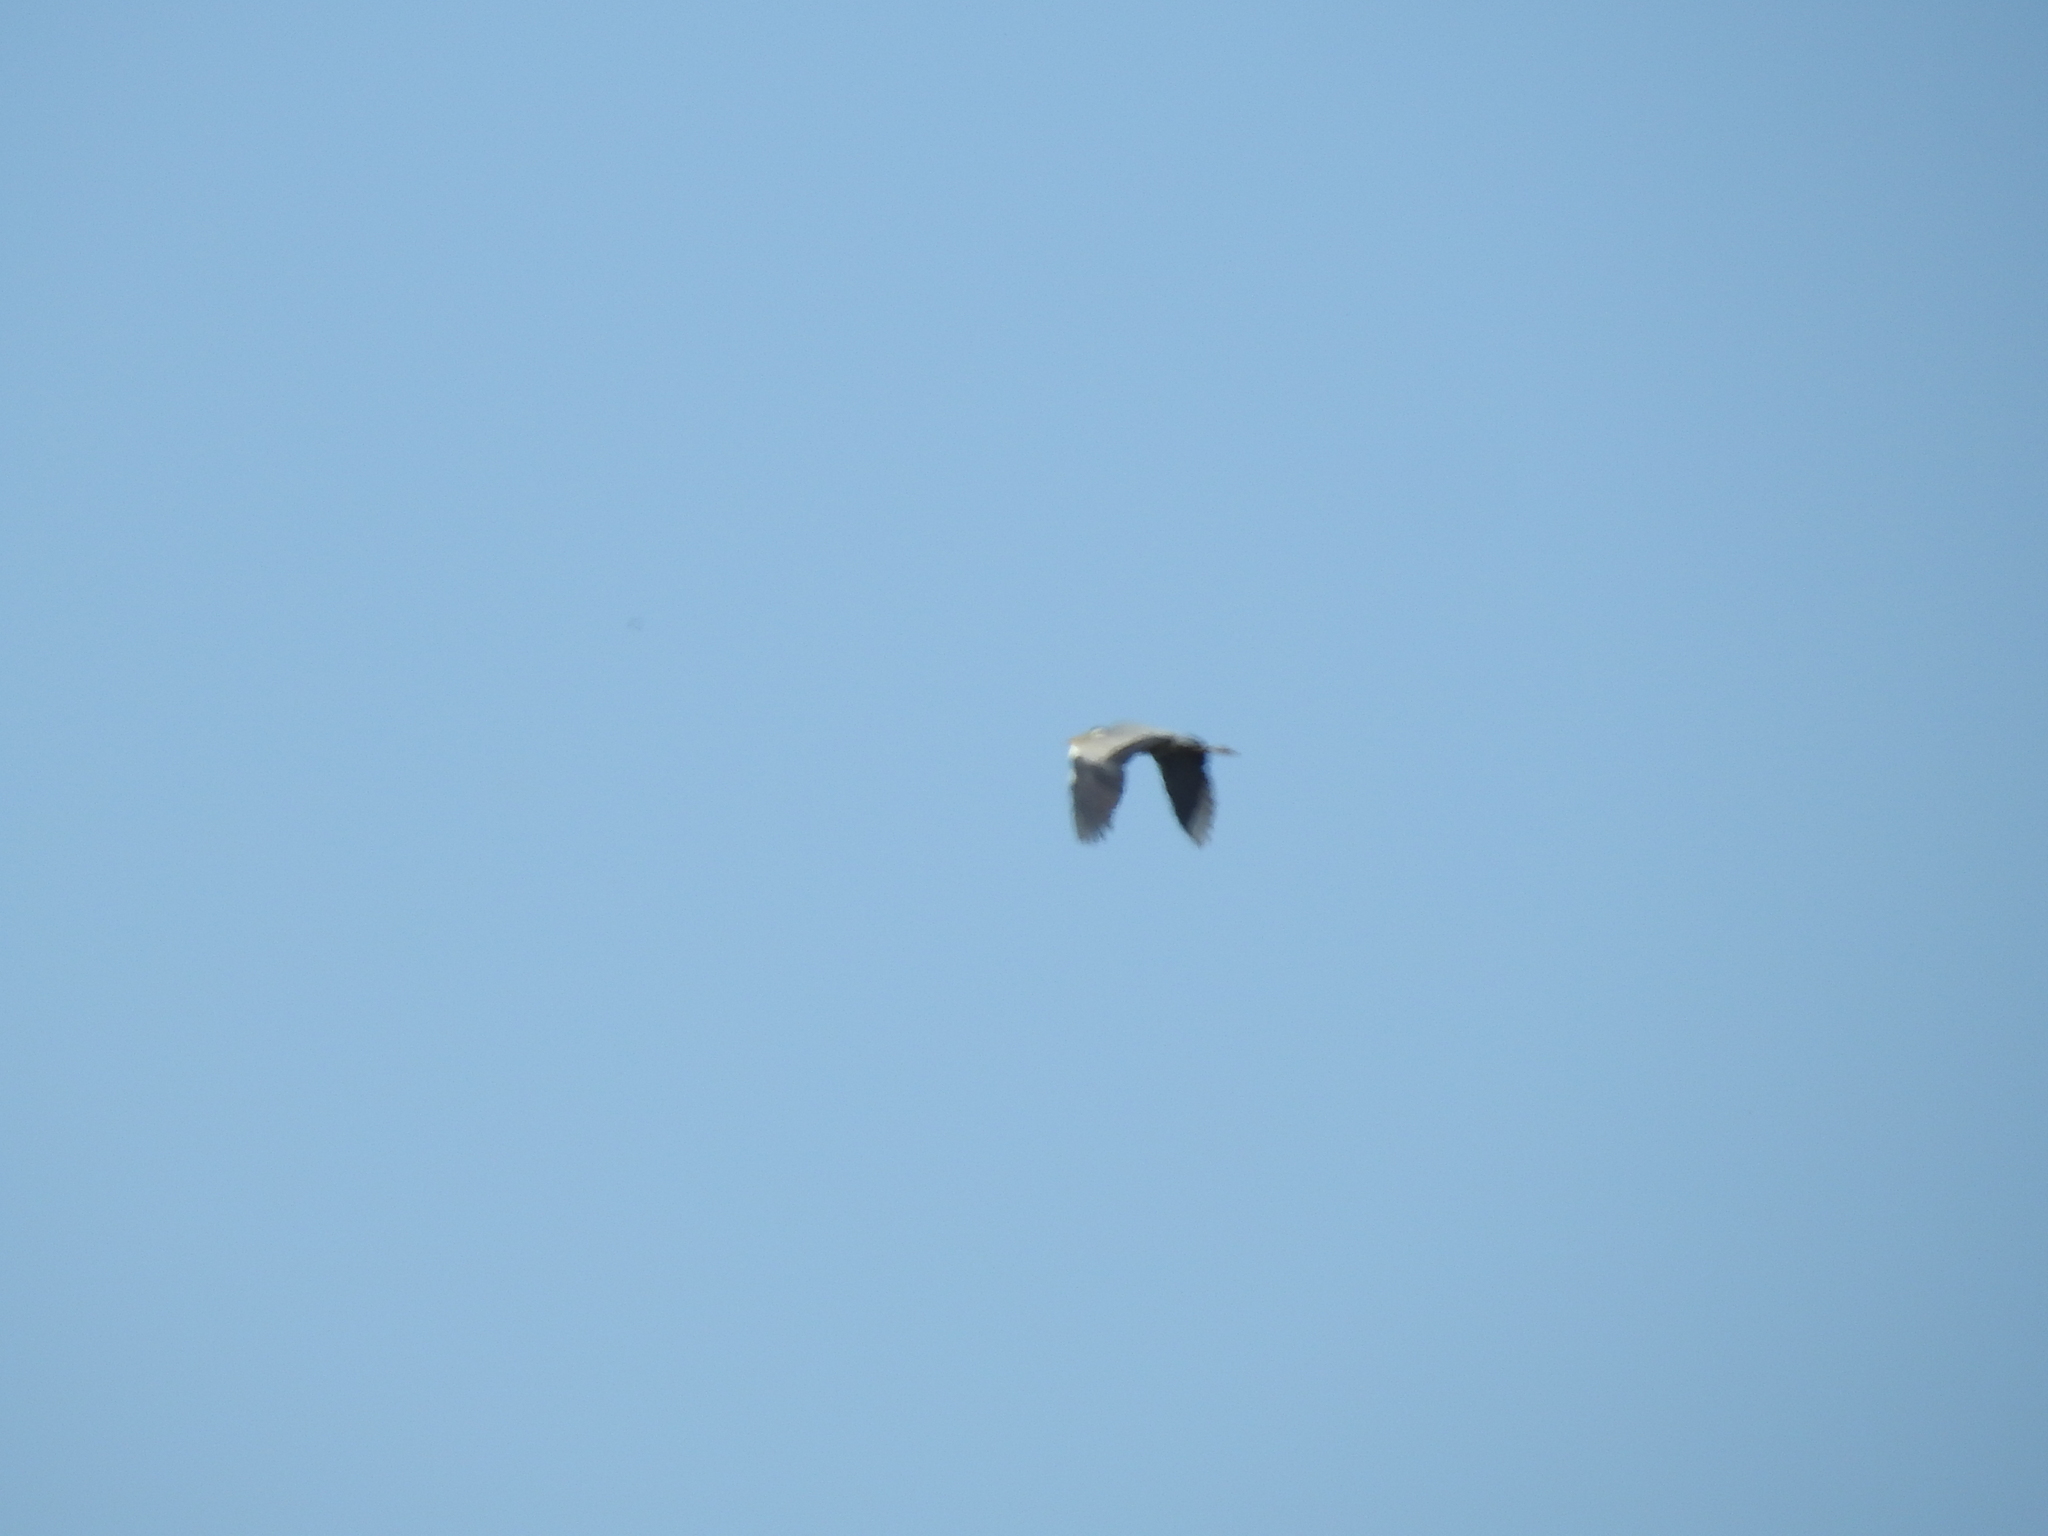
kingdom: Animalia
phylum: Chordata
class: Aves
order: Pelecaniformes
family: Ardeidae
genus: Ardea
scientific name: Ardea cinerea
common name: Grey heron
